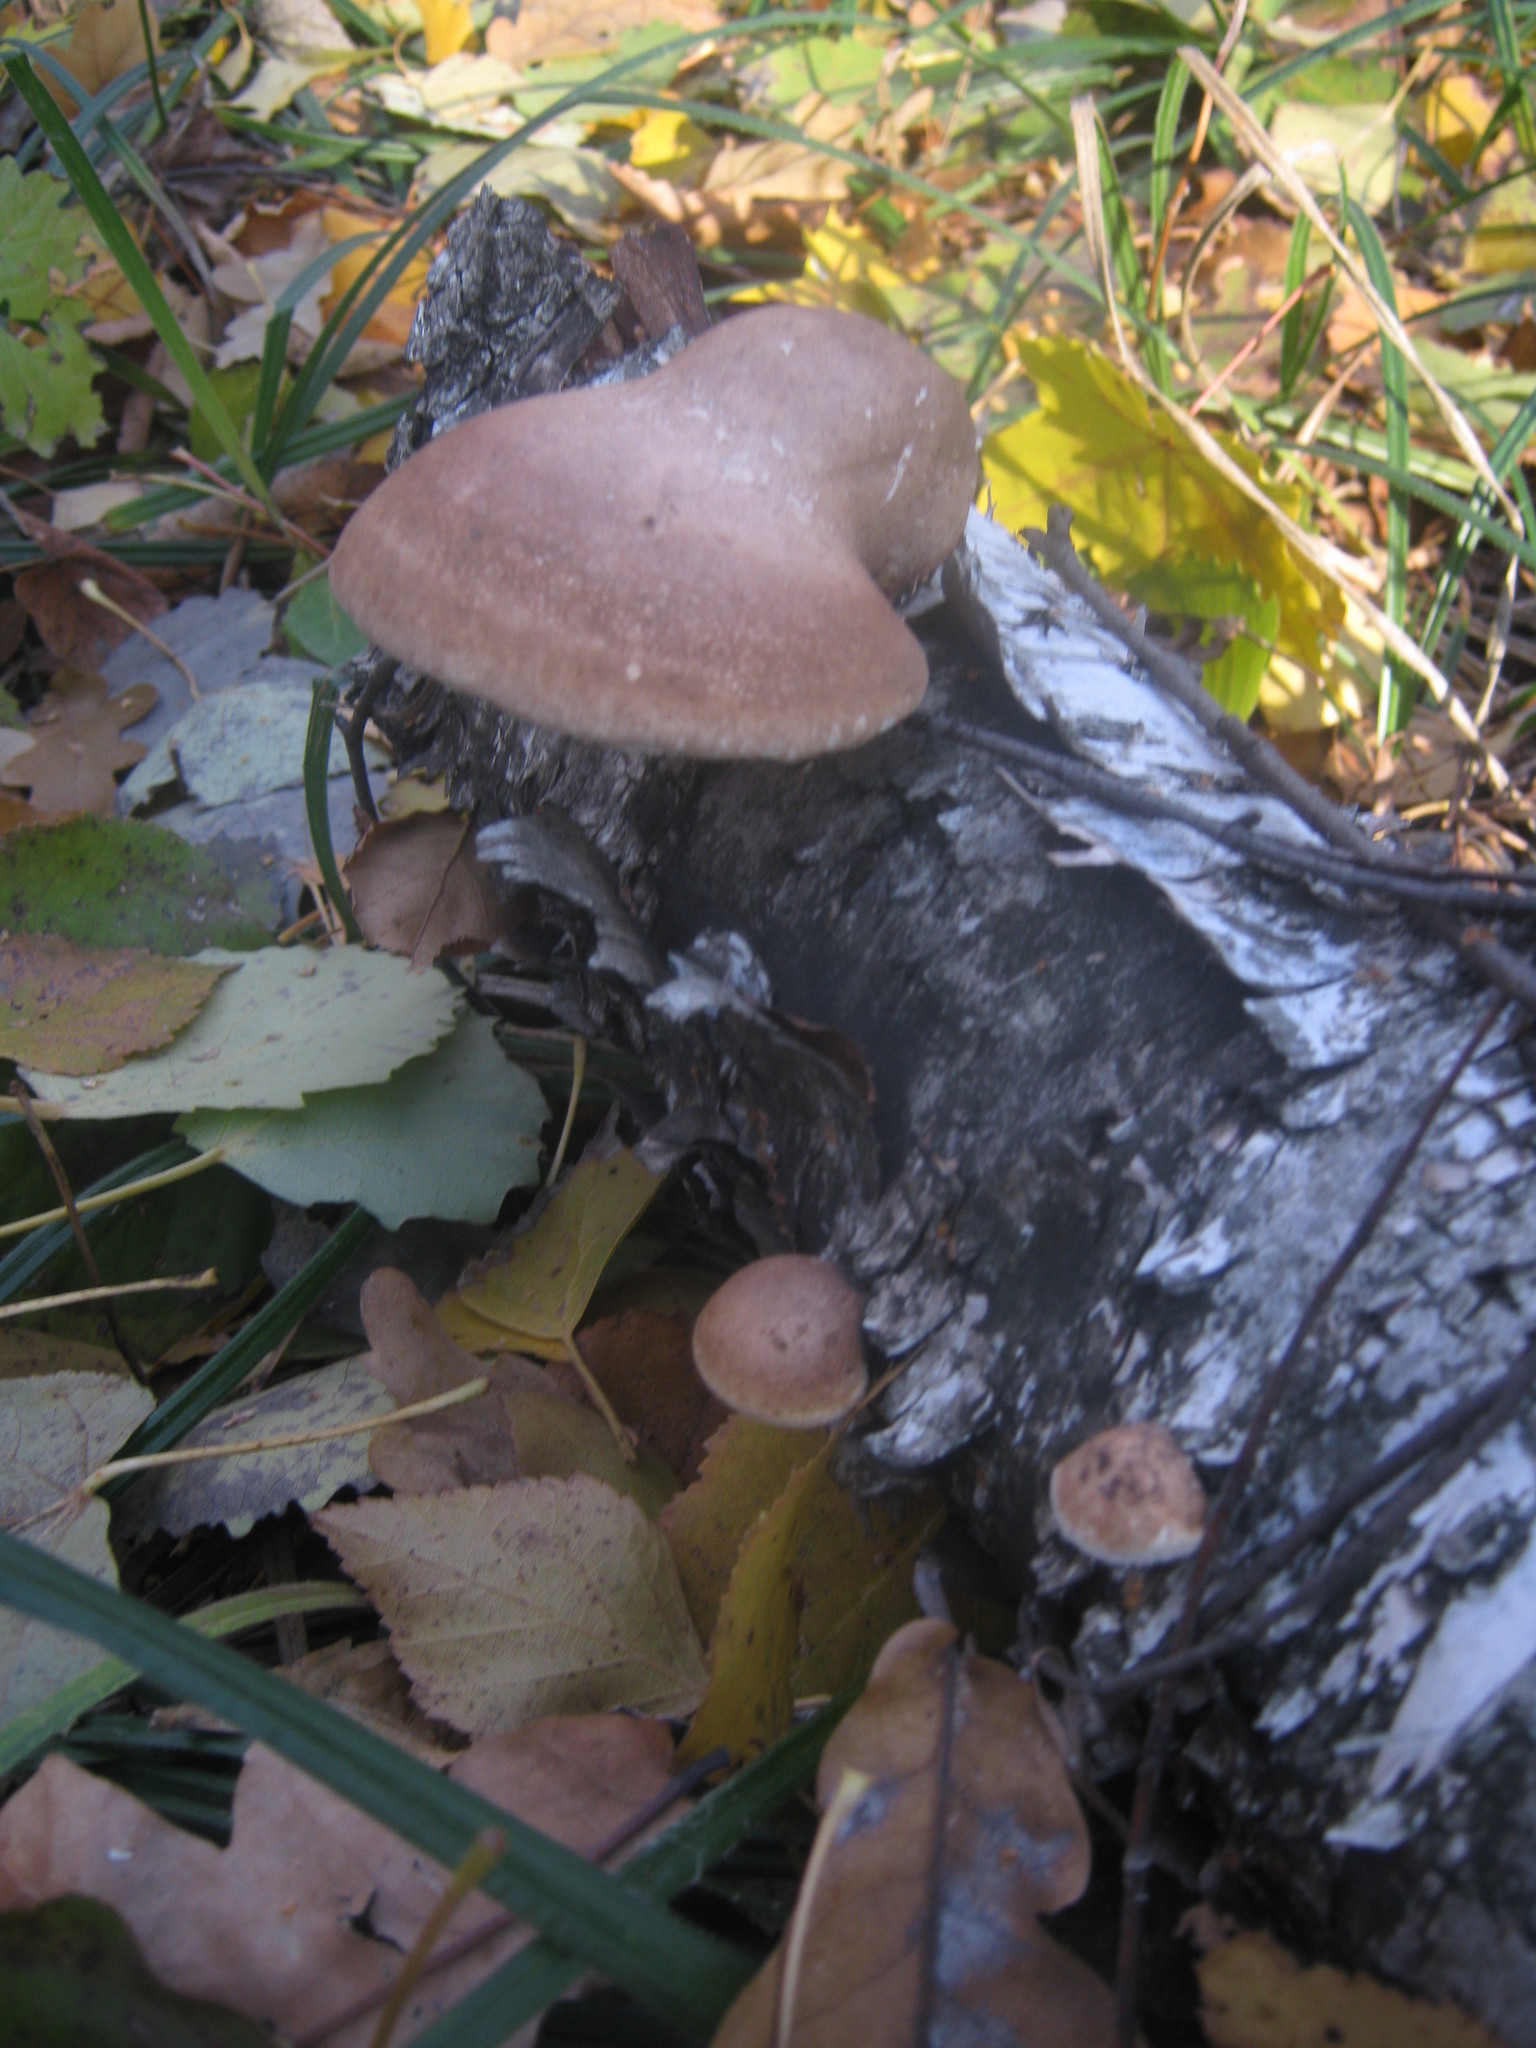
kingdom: Fungi
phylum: Basidiomycota
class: Agaricomycetes
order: Polyporales
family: Fomitopsidaceae
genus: Fomitopsis
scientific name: Fomitopsis betulina
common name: Birch polypore
